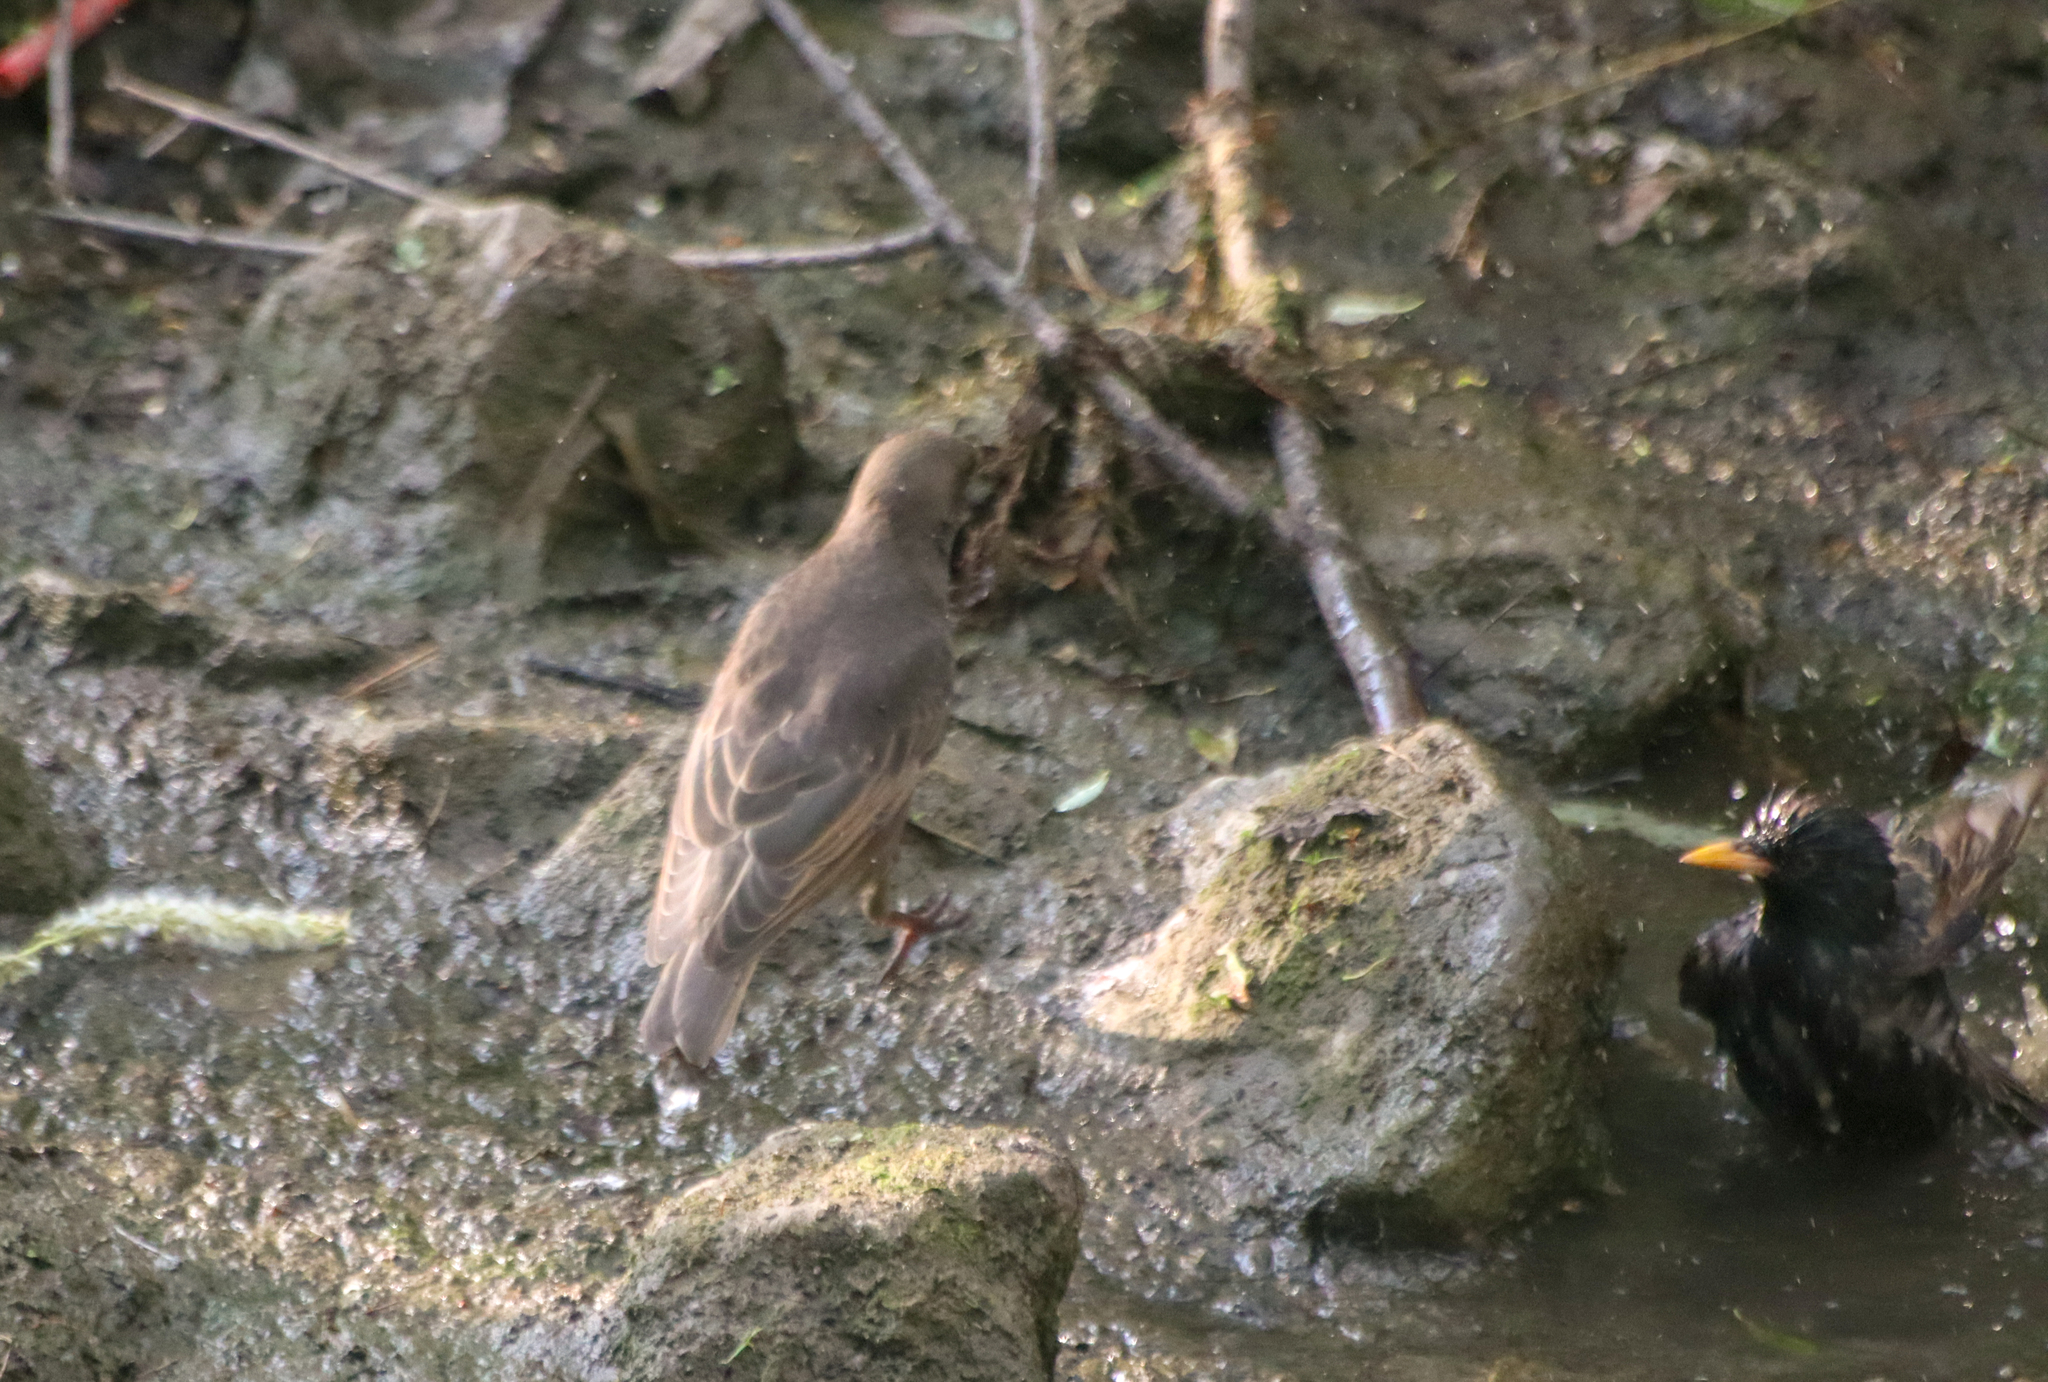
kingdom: Animalia
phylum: Chordata
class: Aves
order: Passeriformes
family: Sturnidae
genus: Sturnus
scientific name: Sturnus vulgaris
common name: Common starling
